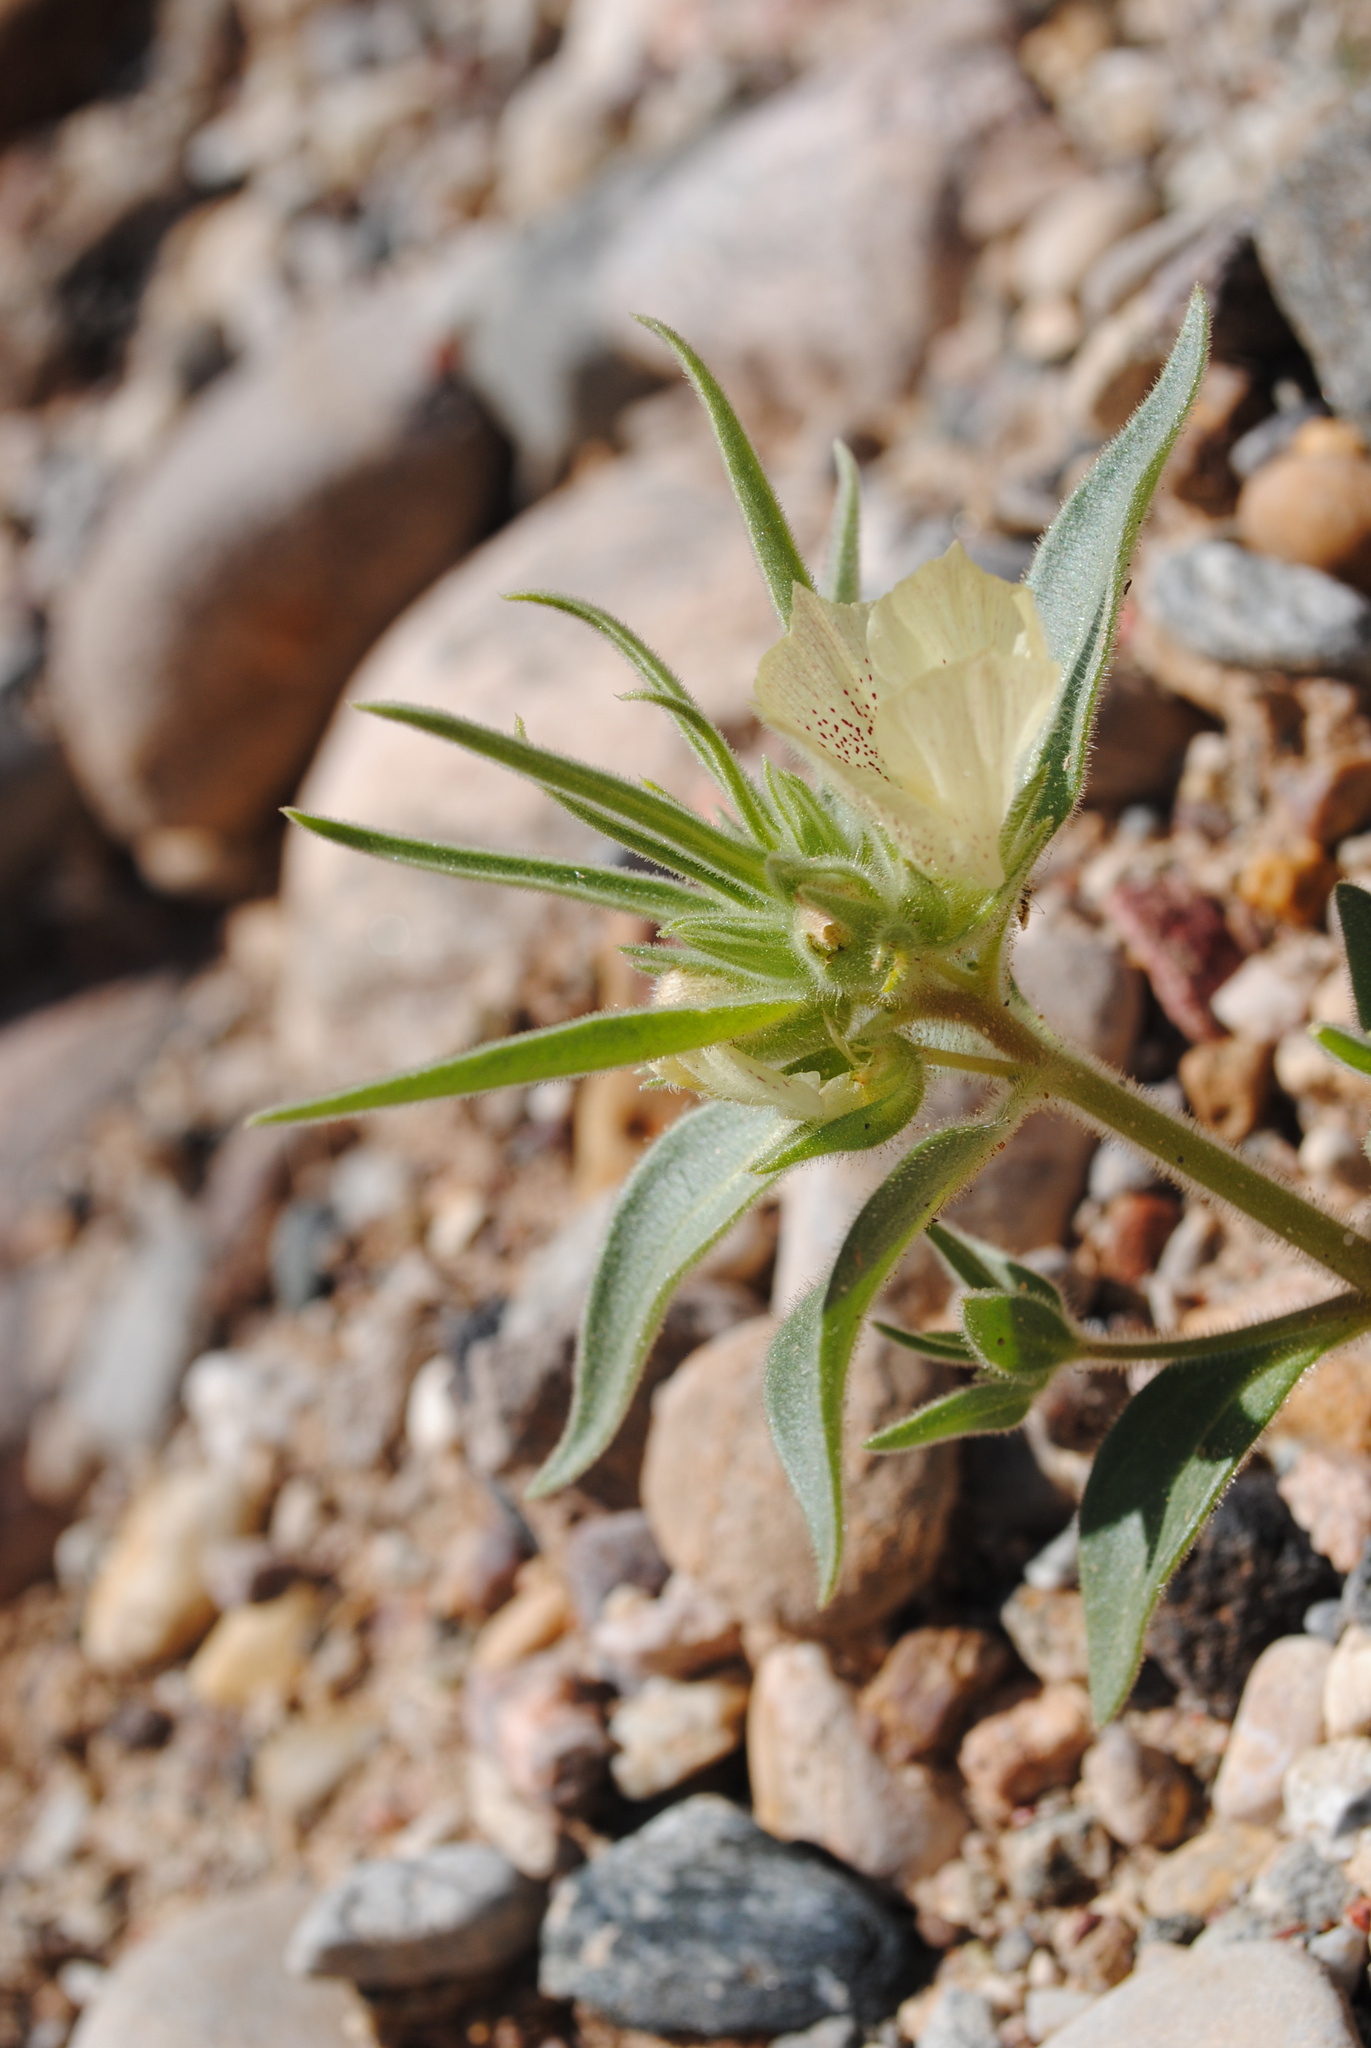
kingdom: Plantae
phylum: Tracheophyta
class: Magnoliopsida
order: Lamiales
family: Plantaginaceae
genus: Mohavea
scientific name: Mohavea confertiflora
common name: Ghost flower
